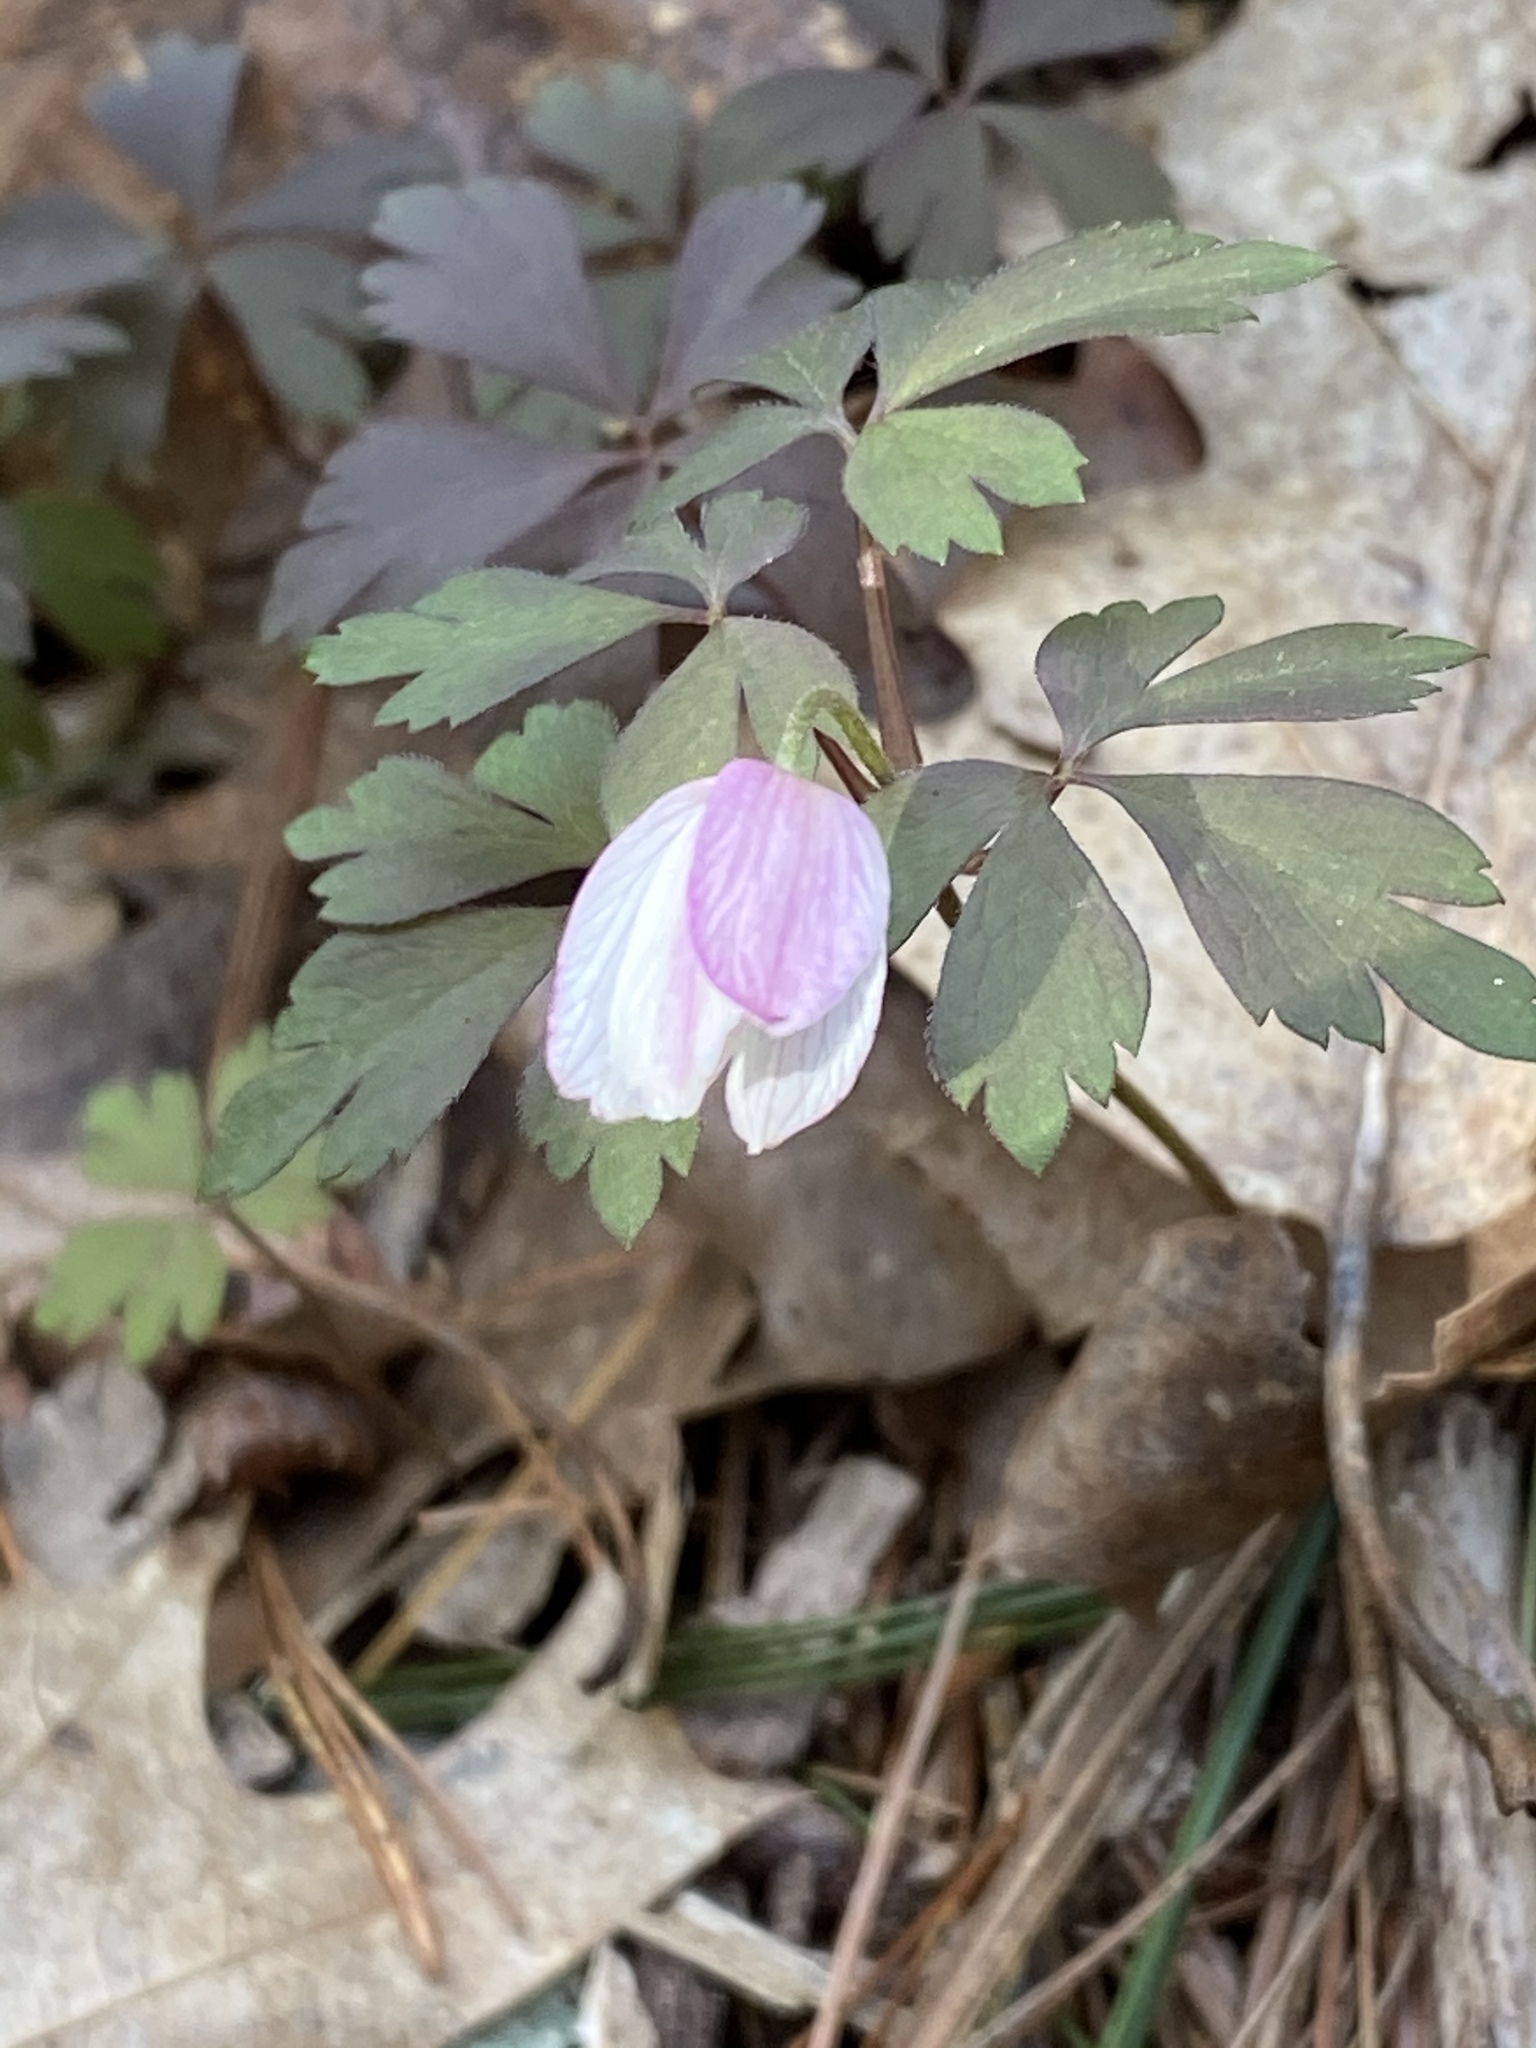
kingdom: Plantae
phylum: Tracheophyta
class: Magnoliopsida
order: Ranunculales
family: Ranunculaceae
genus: Anemone
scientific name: Anemone quinquefolia
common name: Wood anemone
